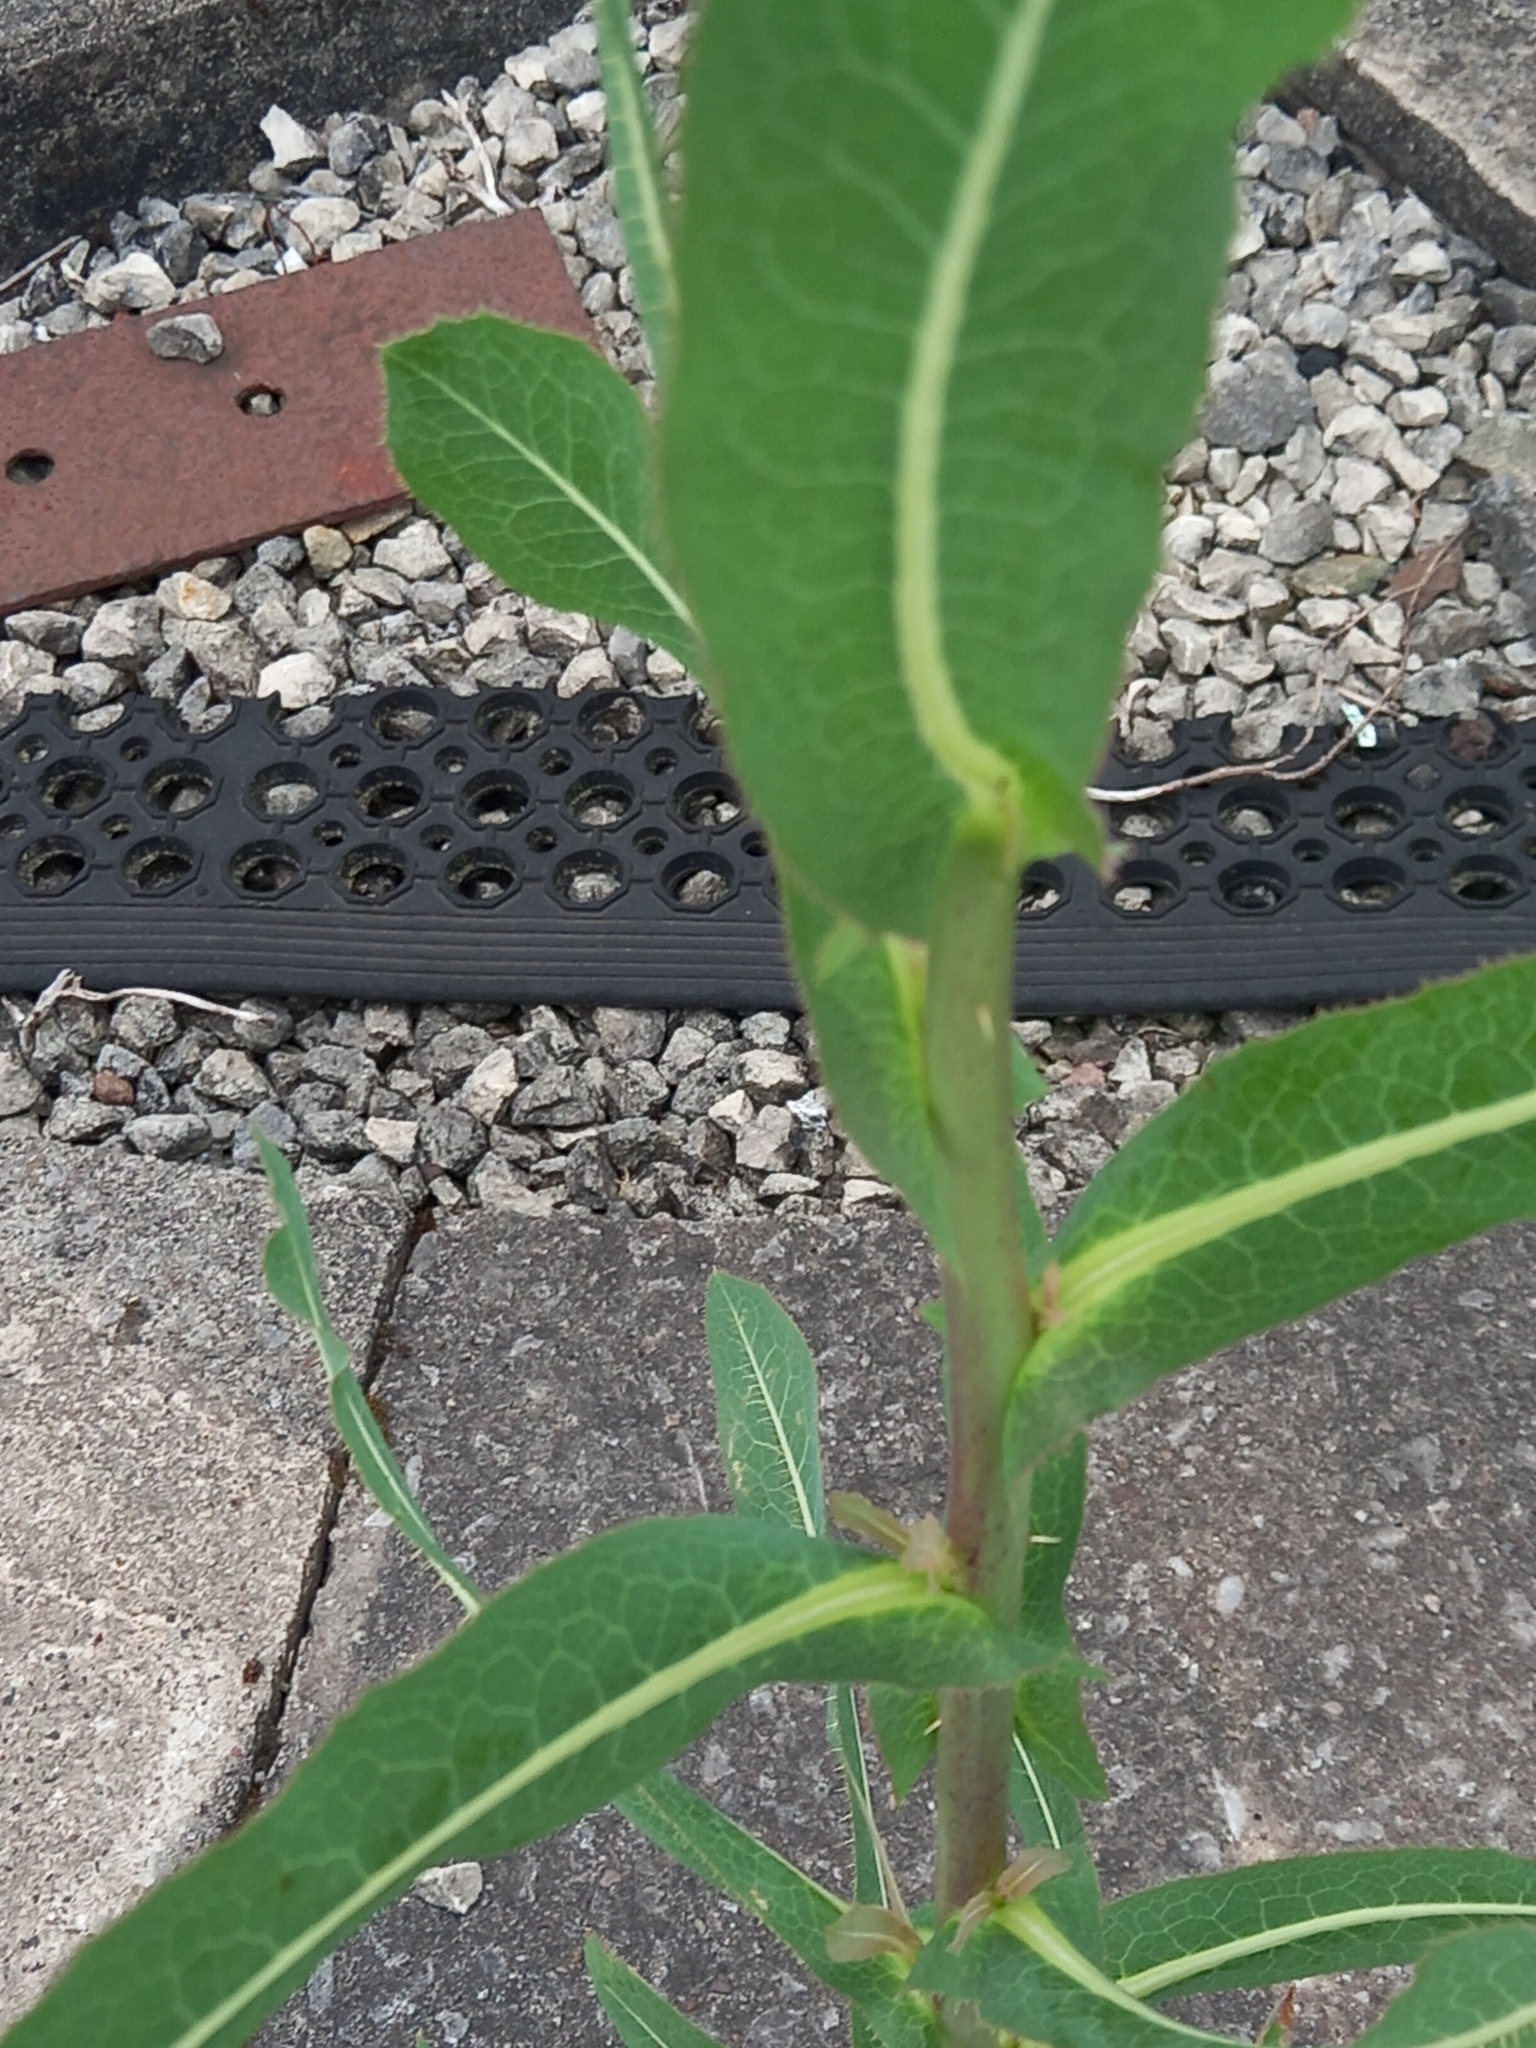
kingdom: Plantae
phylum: Tracheophyta
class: Magnoliopsida
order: Asterales
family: Asteraceae
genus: Lactuca
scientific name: Lactuca serriola
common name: Prickly lettuce
